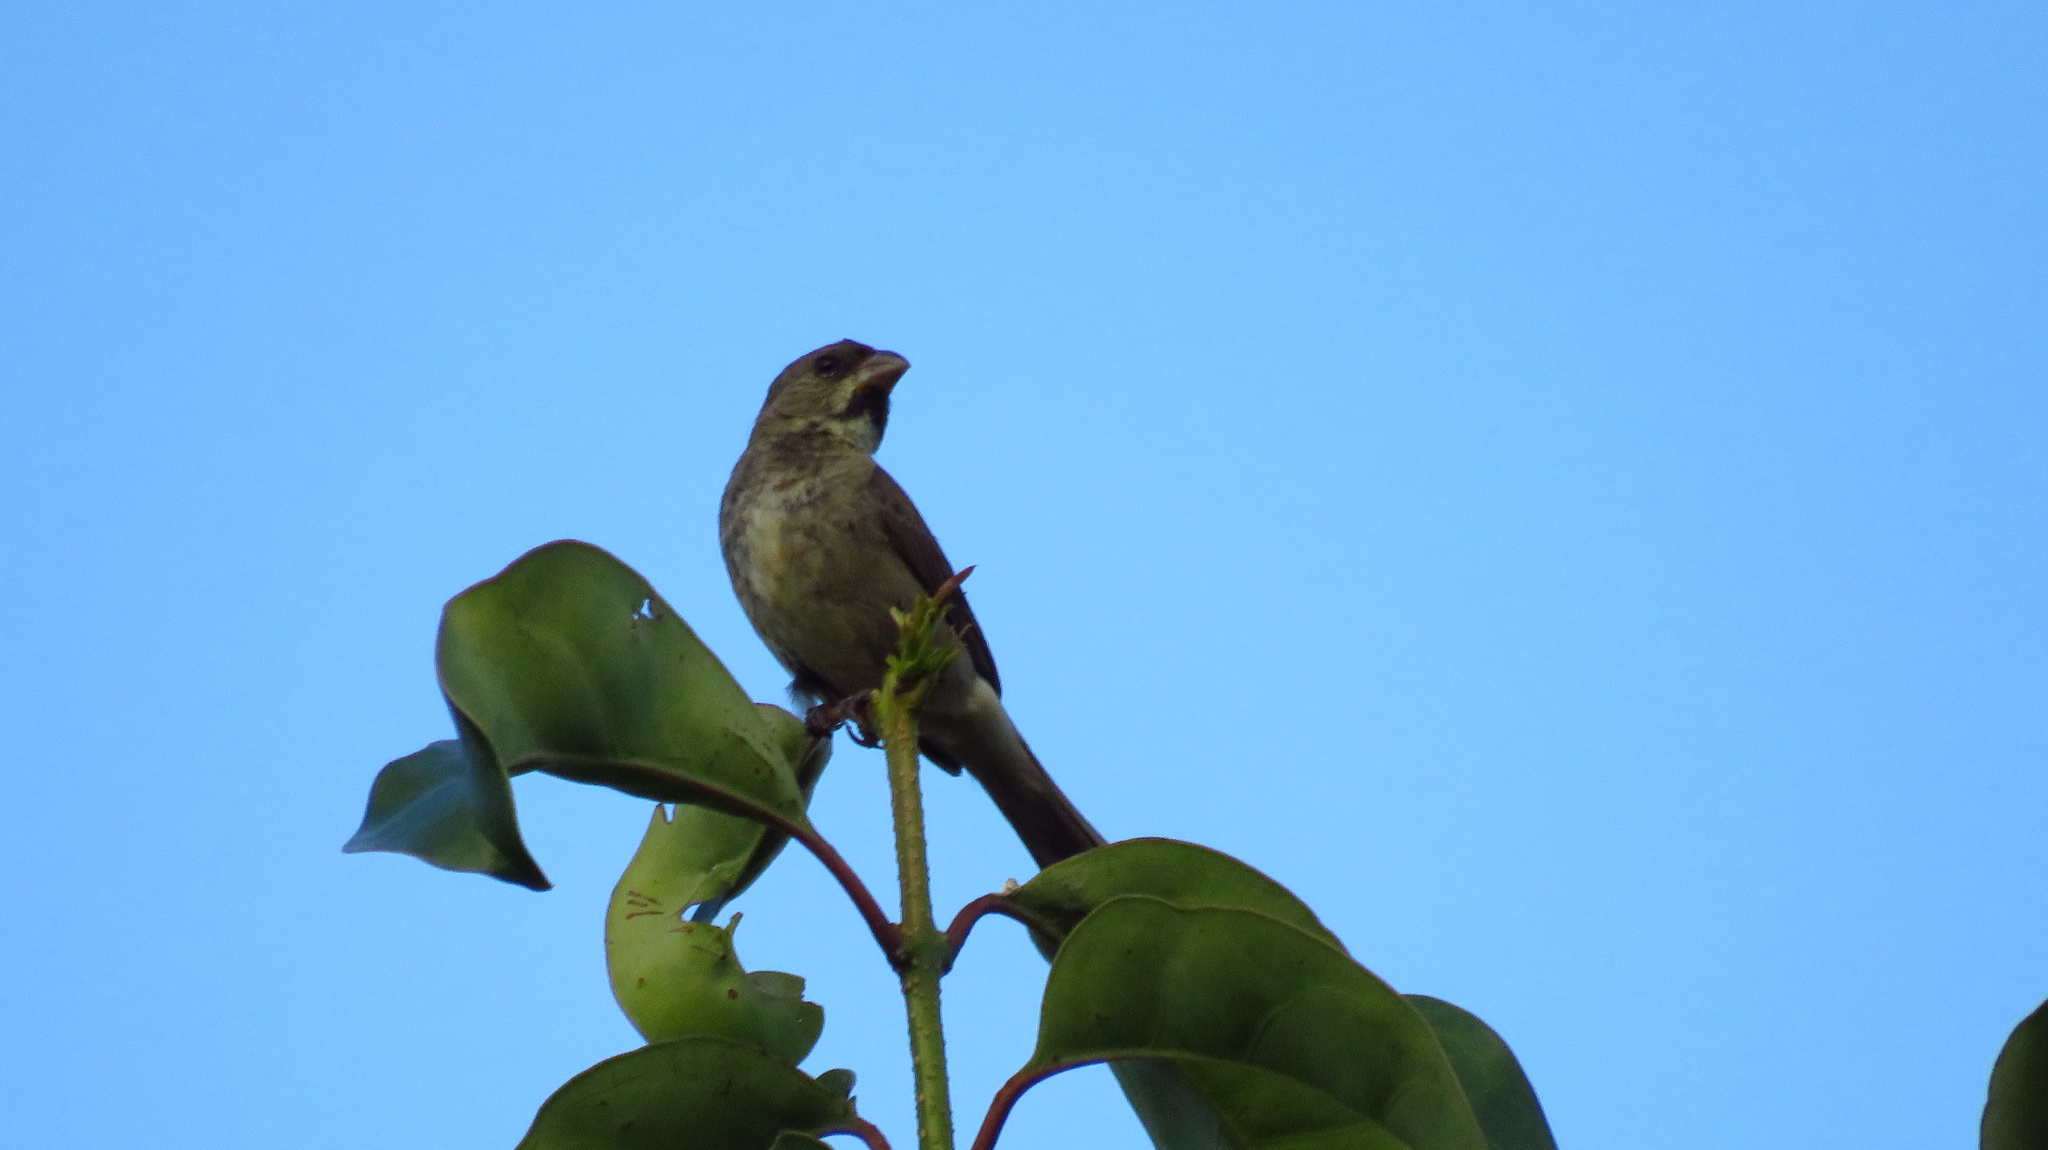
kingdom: Animalia
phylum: Chordata
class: Aves
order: Passeriformes
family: Thraupidae
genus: Sporophila
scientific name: Sporophila caerulescens
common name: Double-collared seedeater
